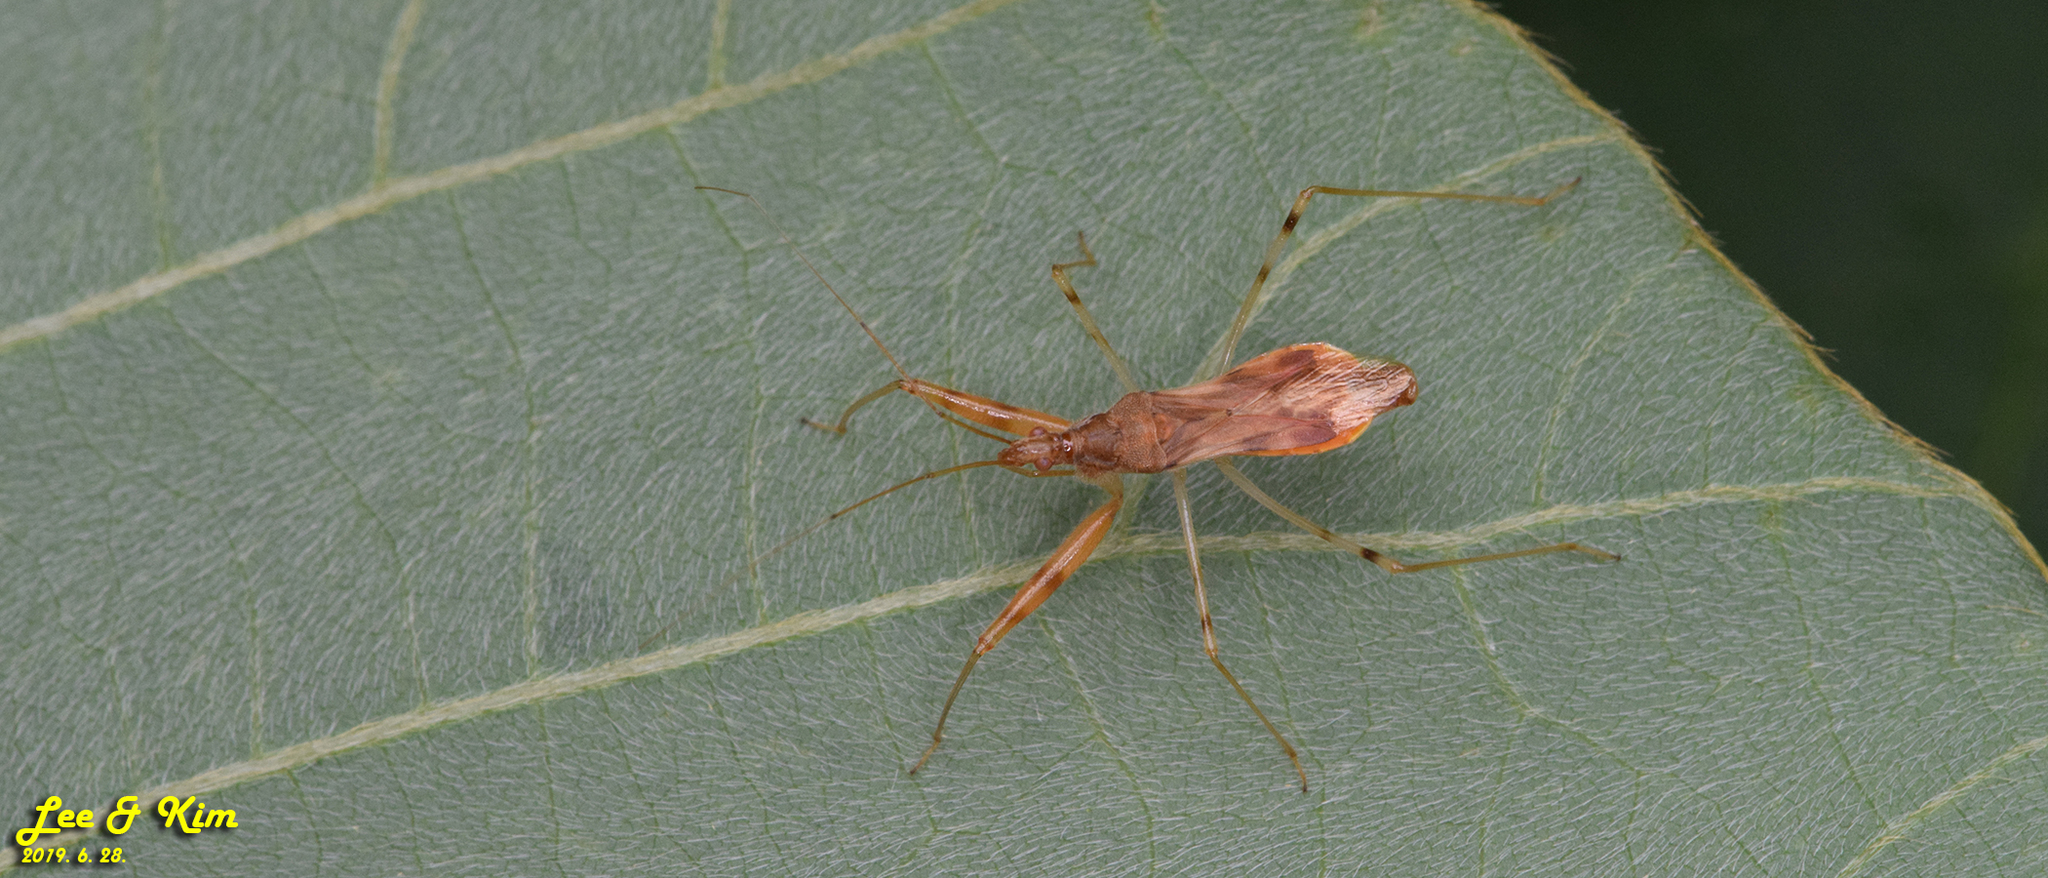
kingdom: Animalia
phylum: Arthropoda
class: Insecta
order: Hemiptera
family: Nabidae
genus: Gorpis
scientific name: Gorpis
